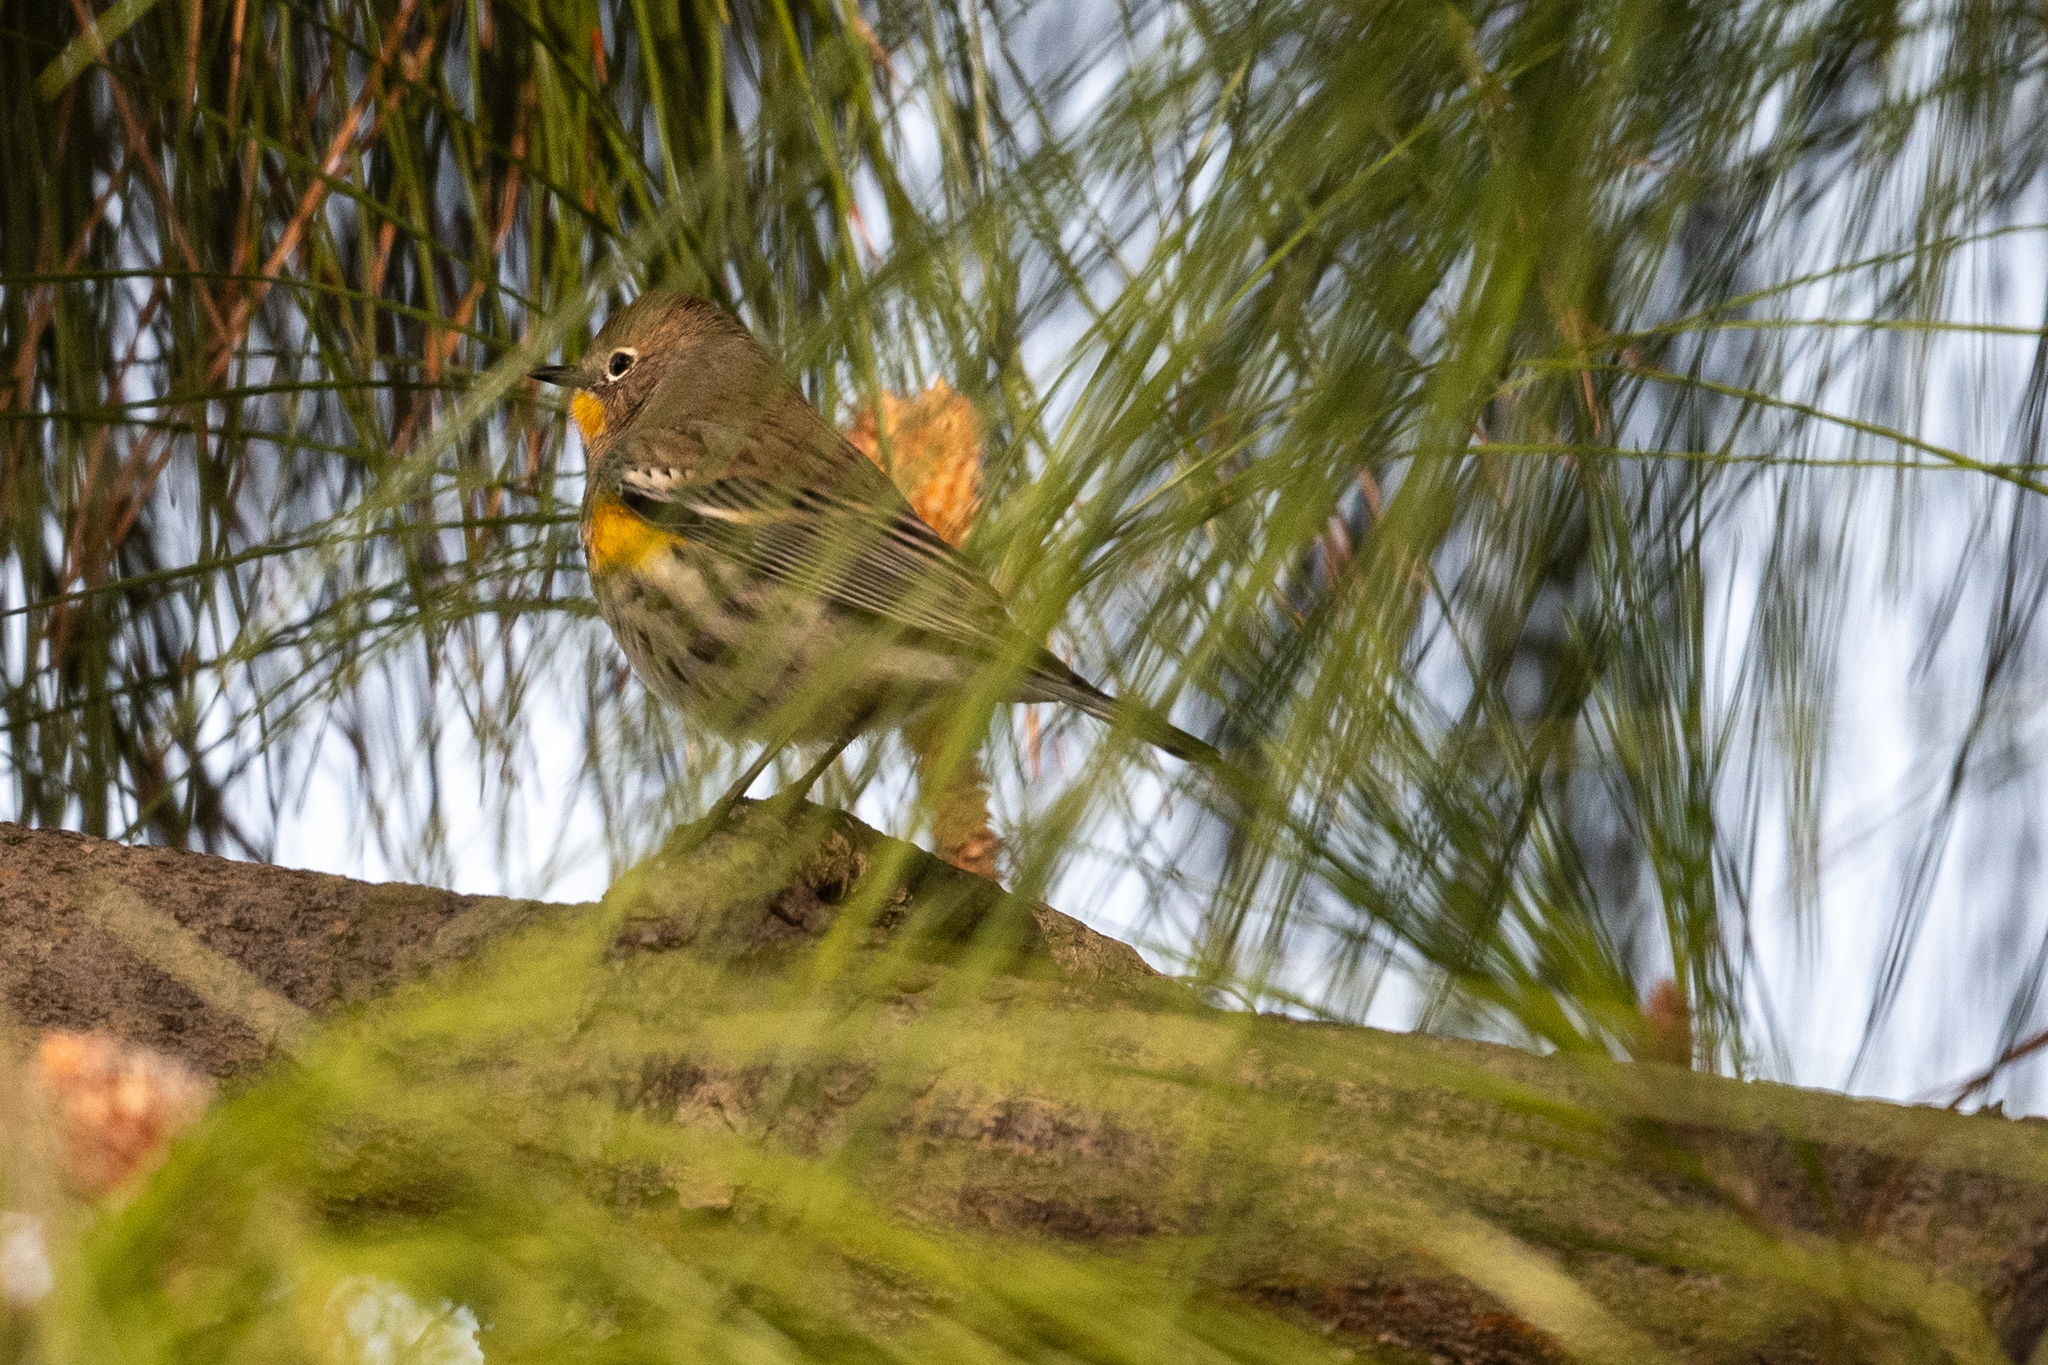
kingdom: Animalia
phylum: Chordata
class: Aves
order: Passeriformes
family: Parulidae
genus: Setophaga
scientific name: Setophaga coronata
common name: Myrtle warbler
